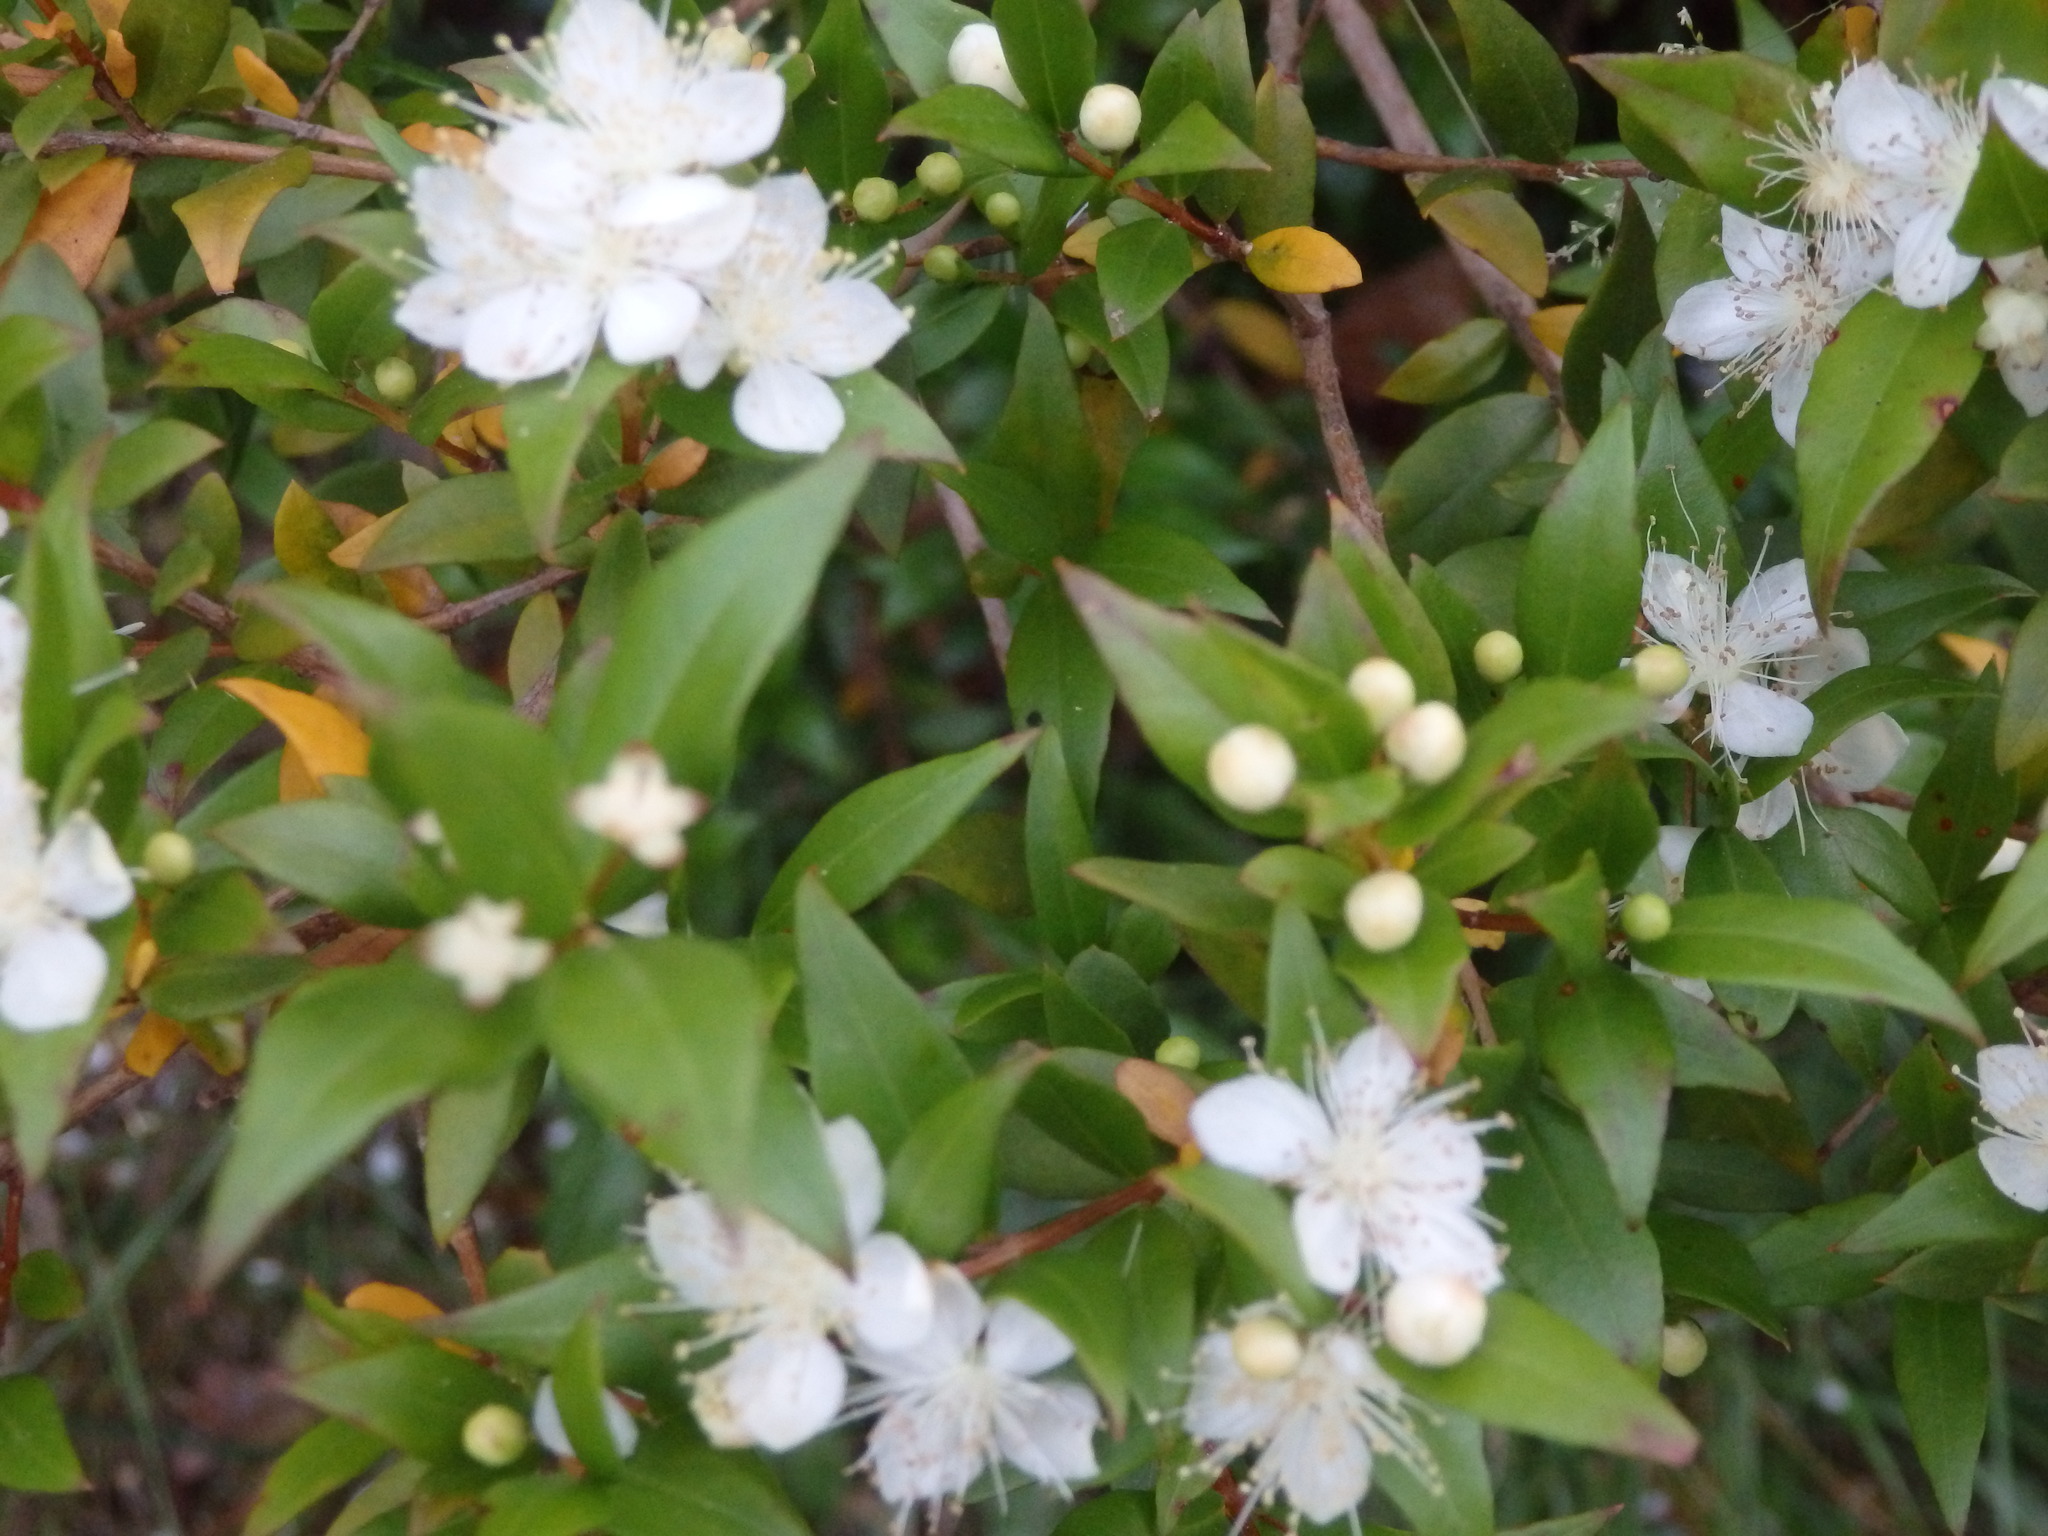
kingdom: Plantae
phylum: Tracheophyta
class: Magnoliopsida
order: Myrtales
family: Myrtaceae
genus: Myrtus
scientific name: Myrtus communis
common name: Myrtle
